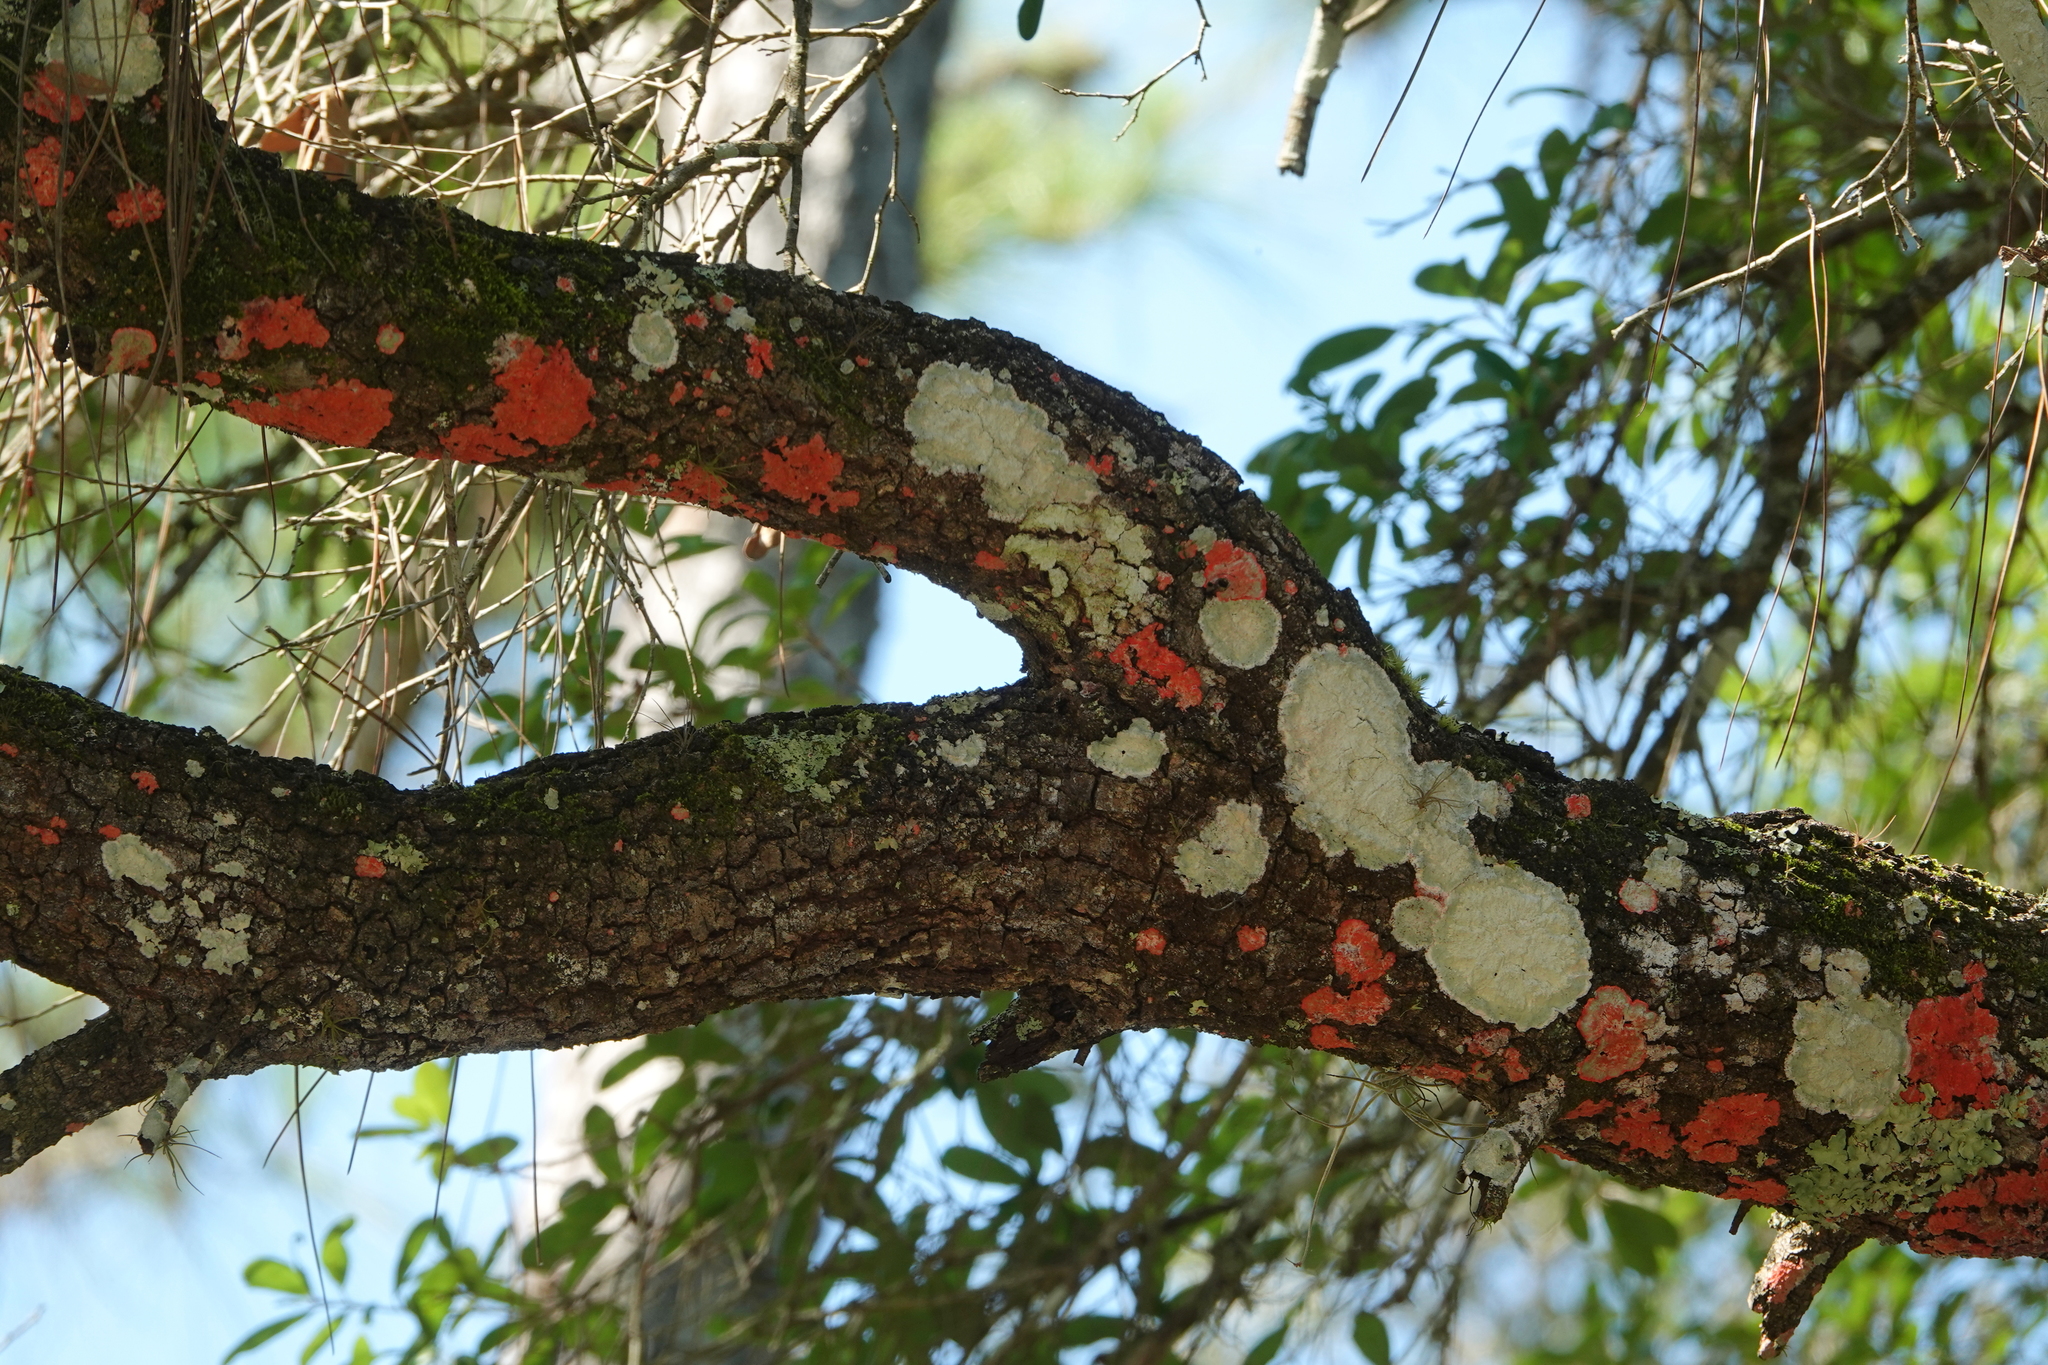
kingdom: Fungi
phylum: Ascomycota
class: Arthoniomycetes
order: Arthoniales
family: Arthoniaceae
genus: Herpothallon
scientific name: Herpothallon rubrocinctum
